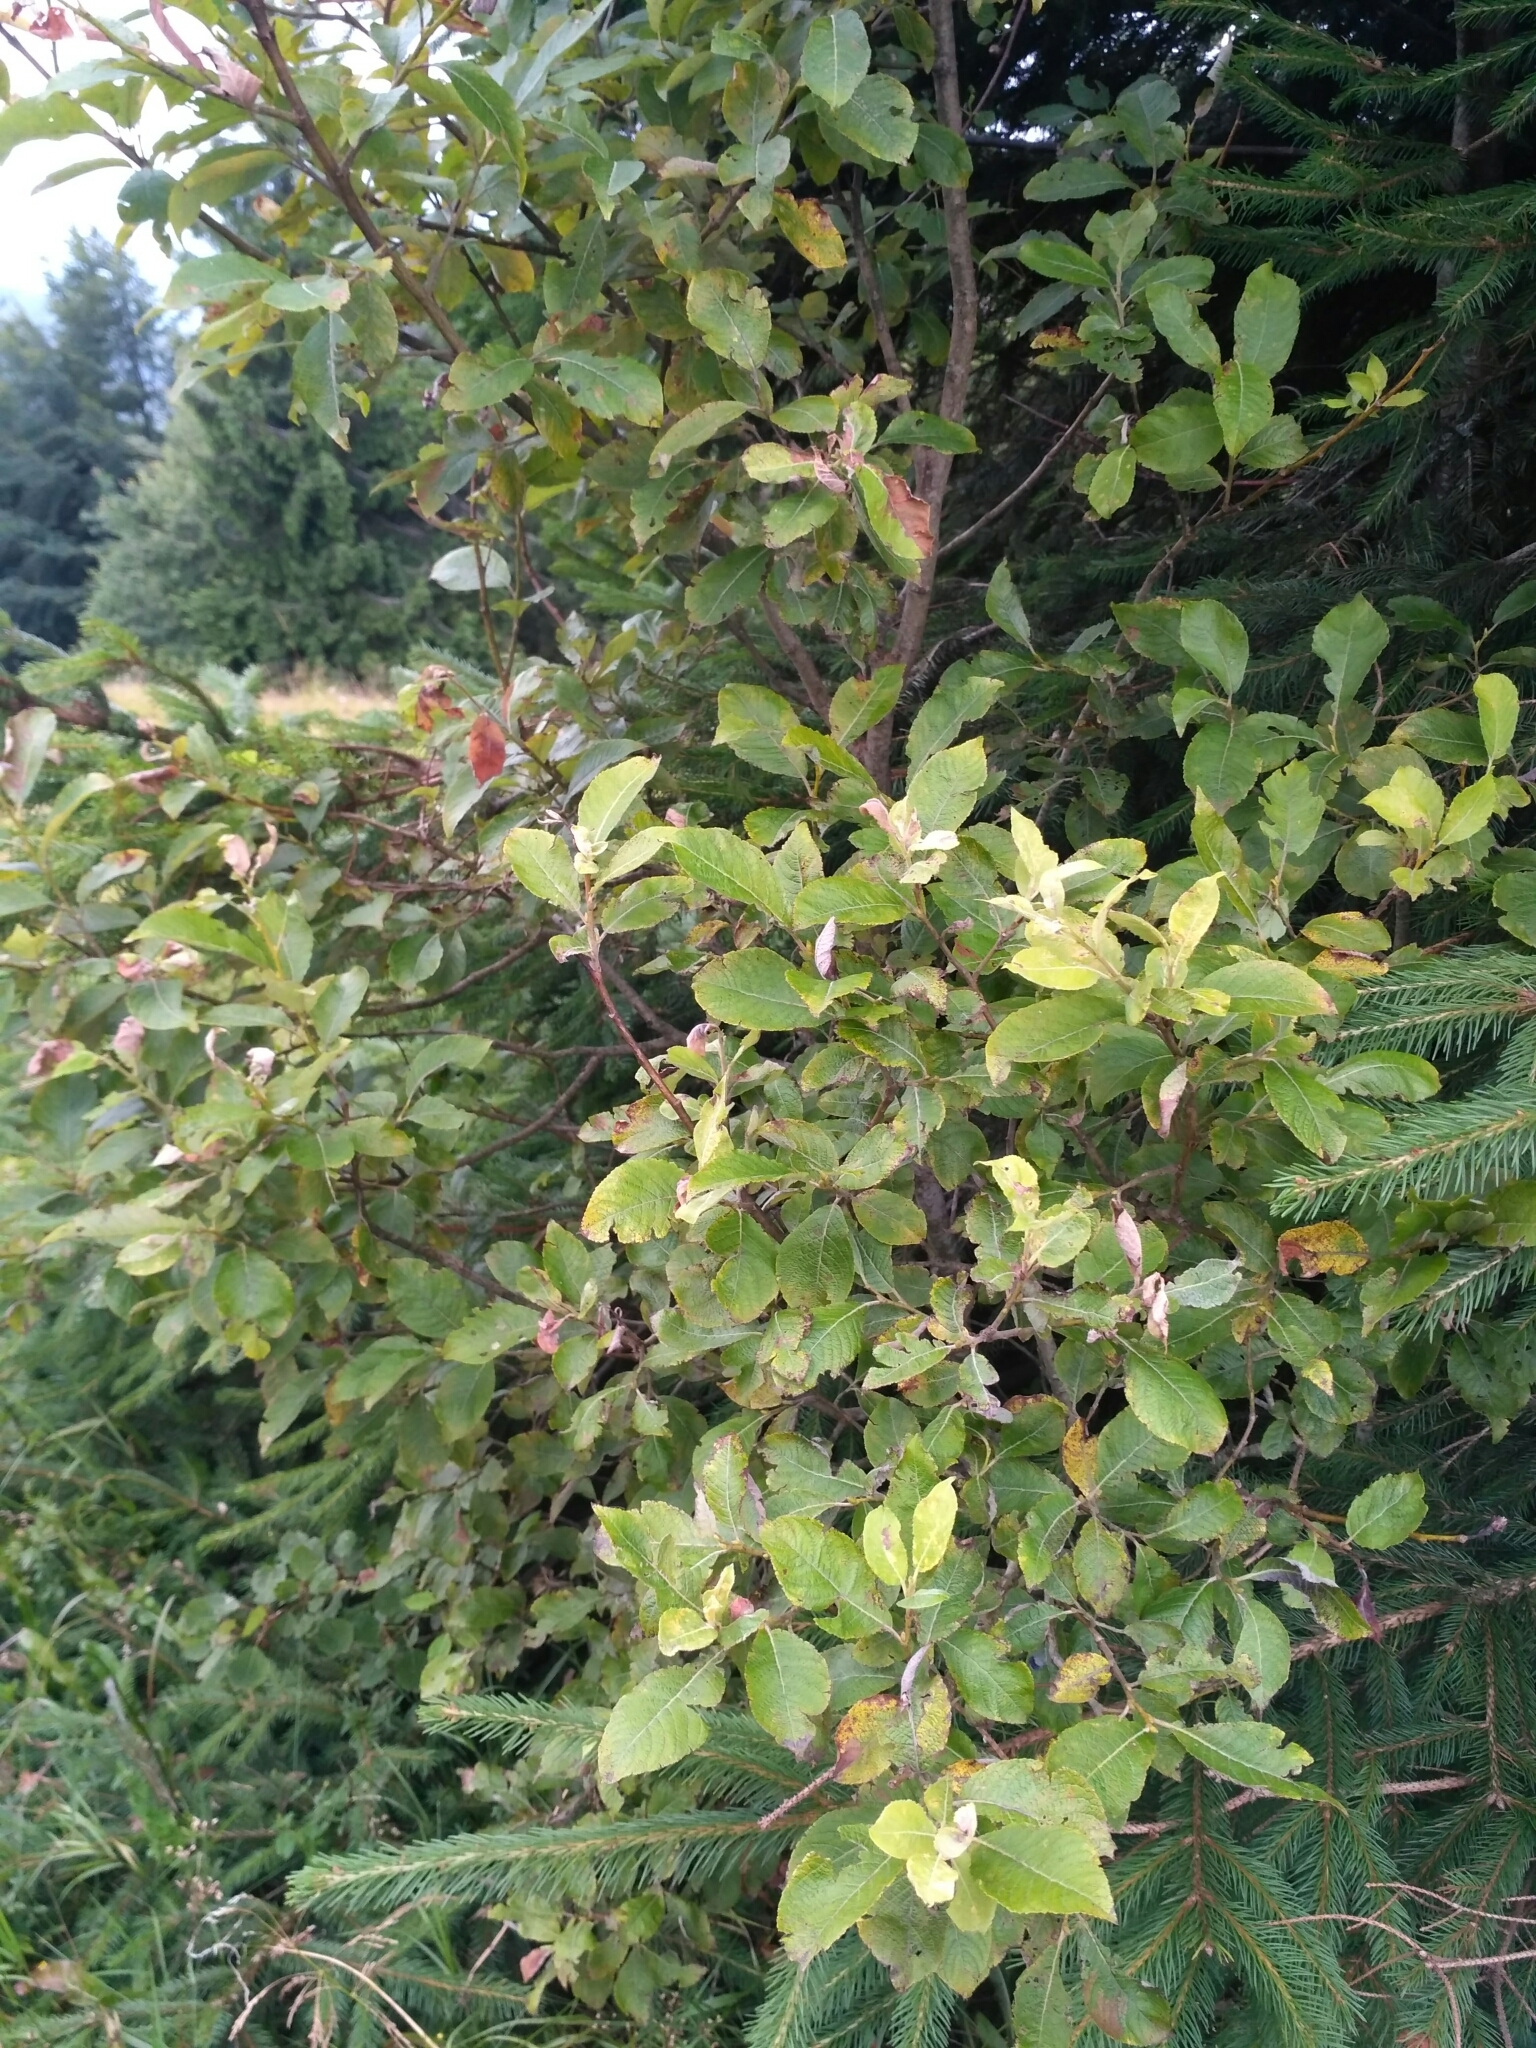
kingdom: Plantae
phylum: Tracheophyta
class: Magnoliopsida
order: Malpighiales
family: Salicaceae
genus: Salix
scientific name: Salix cinerea
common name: Common sallow
